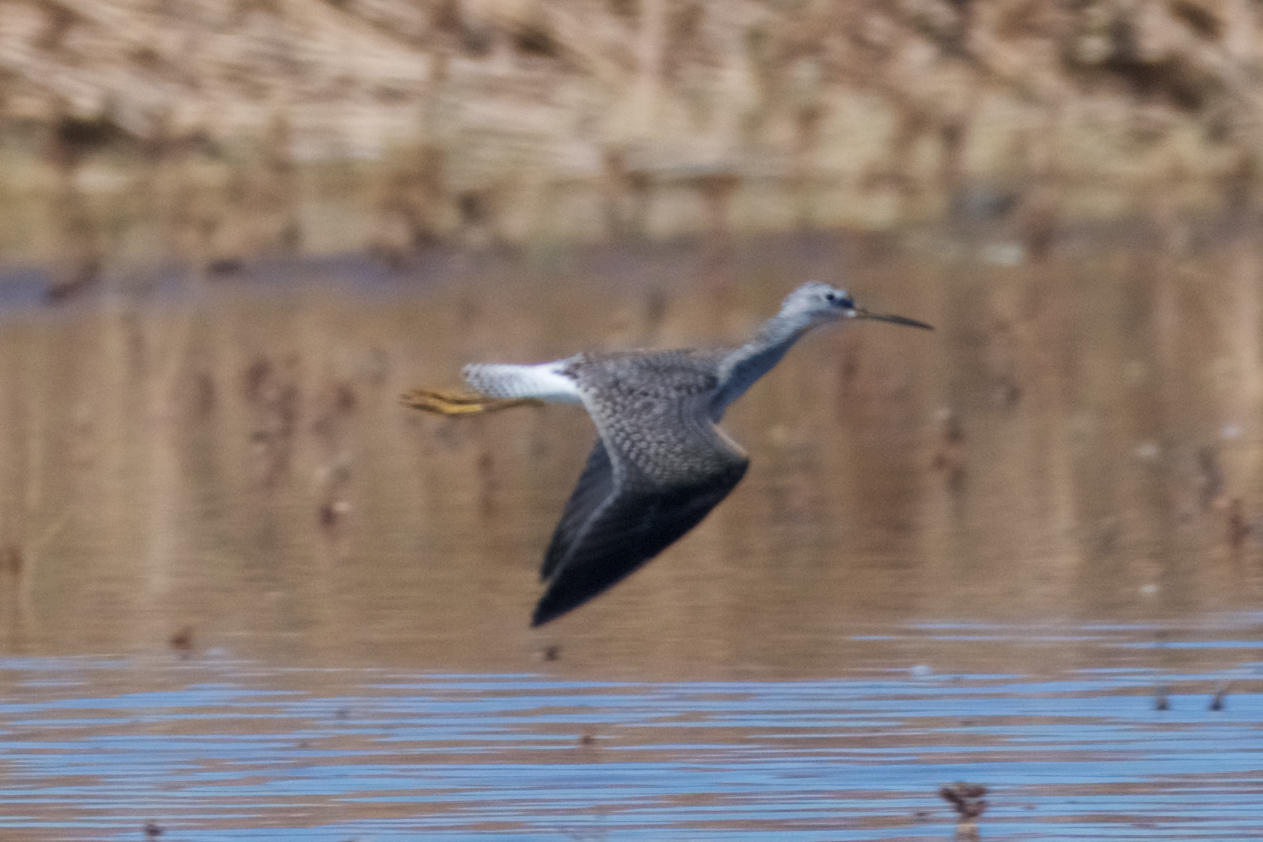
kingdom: Animalia
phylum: Chordata
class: Aves
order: Charadriiformes
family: Scolopacidae
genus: Tringa
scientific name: Tringa melanoleuca
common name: Greater yellowlegs
